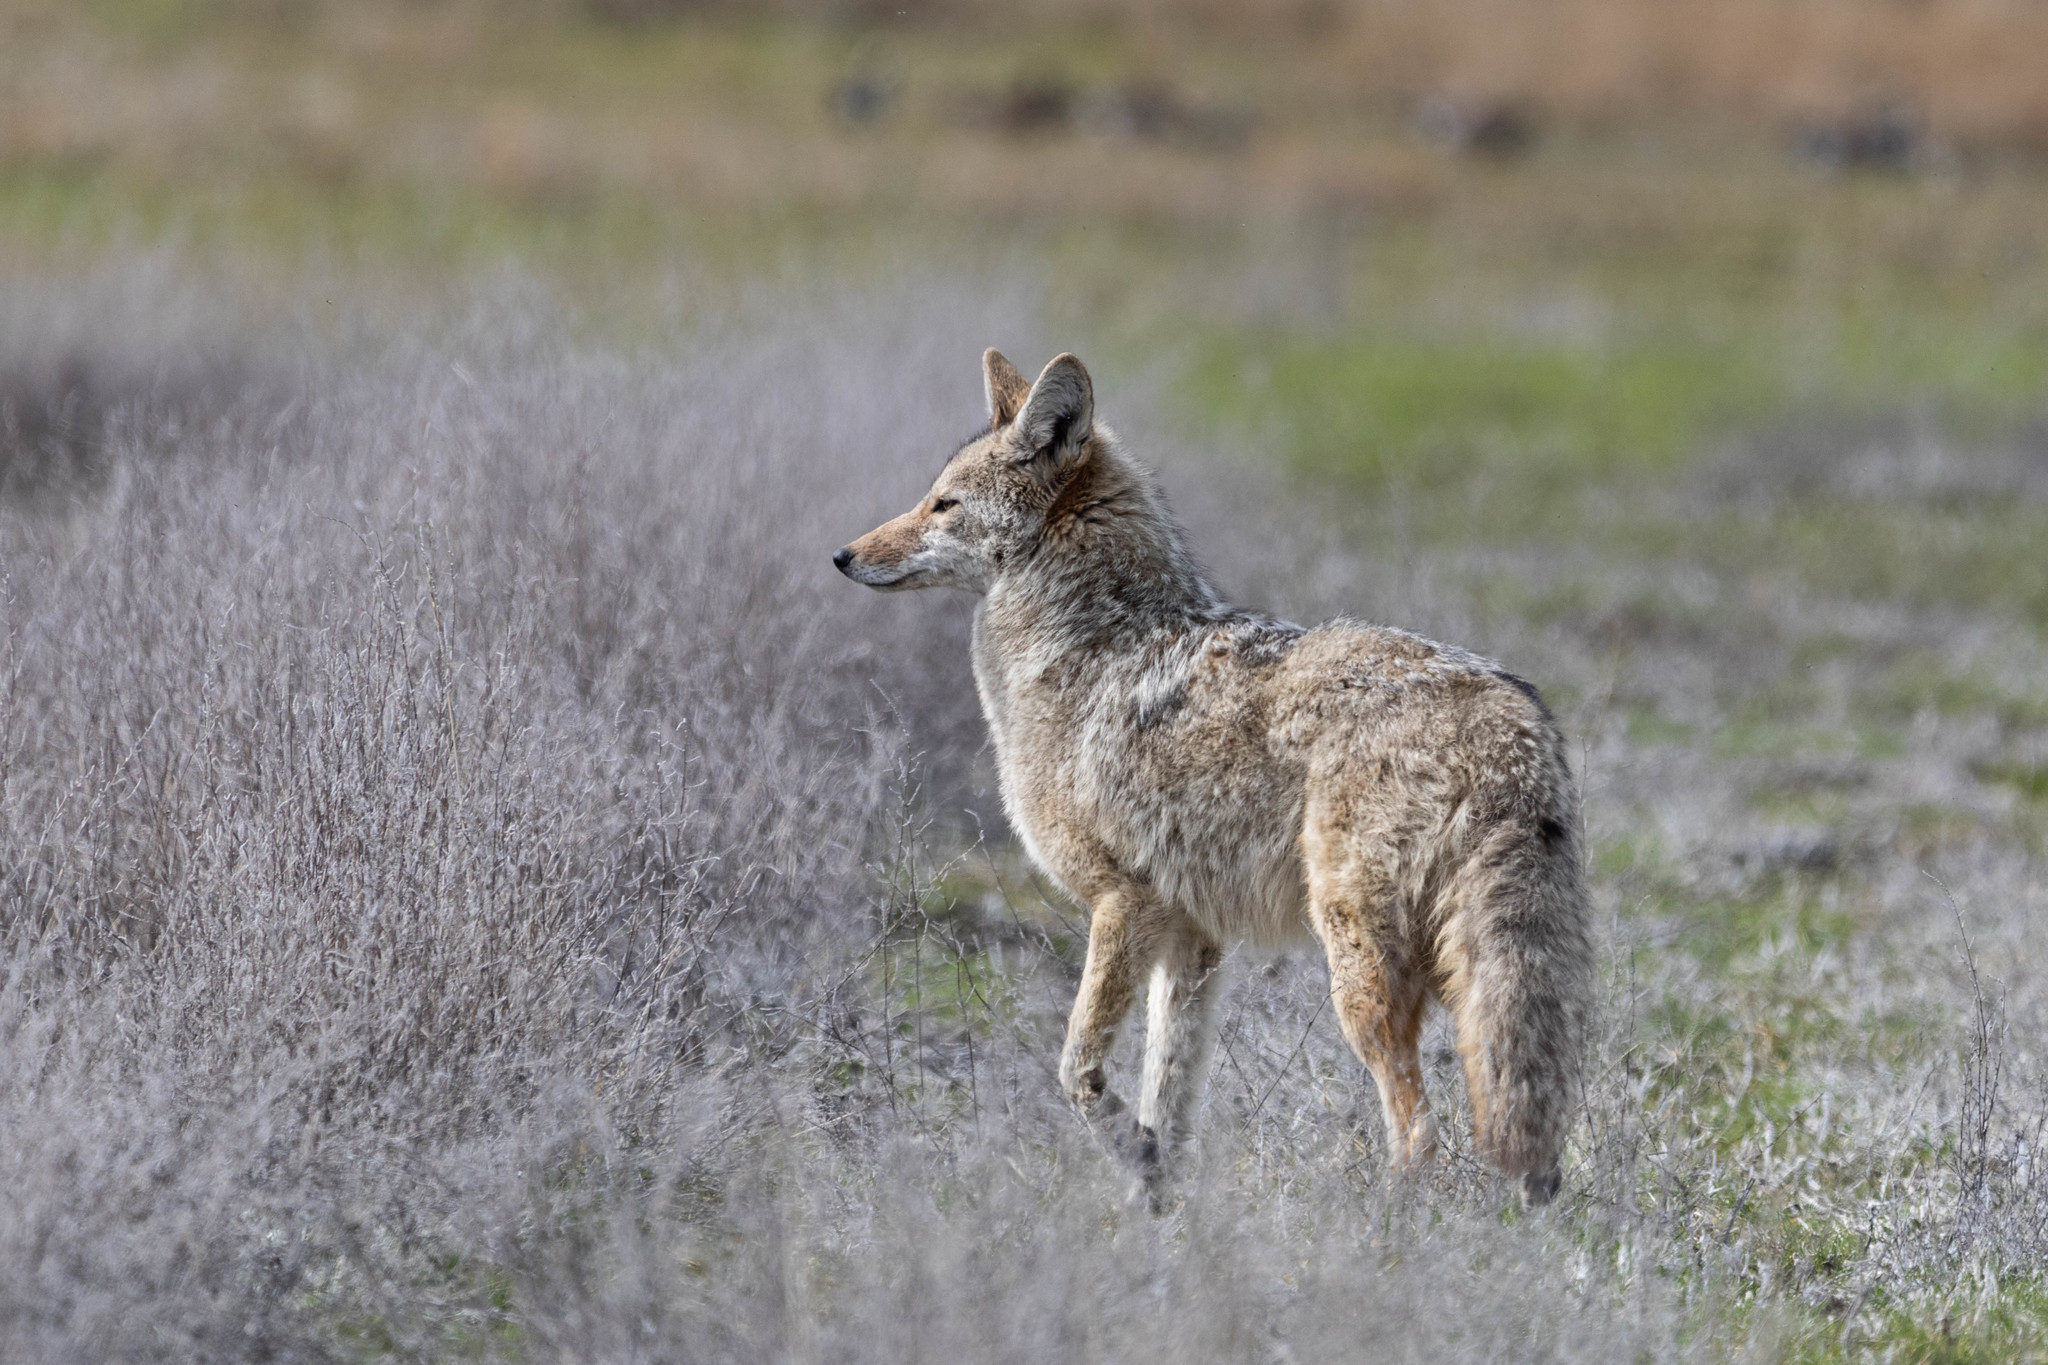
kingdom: Animalia
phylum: Chordata
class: Mammalia
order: Carnivora
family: Canidae
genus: Canis
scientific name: Canis latrans
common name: Coyote
